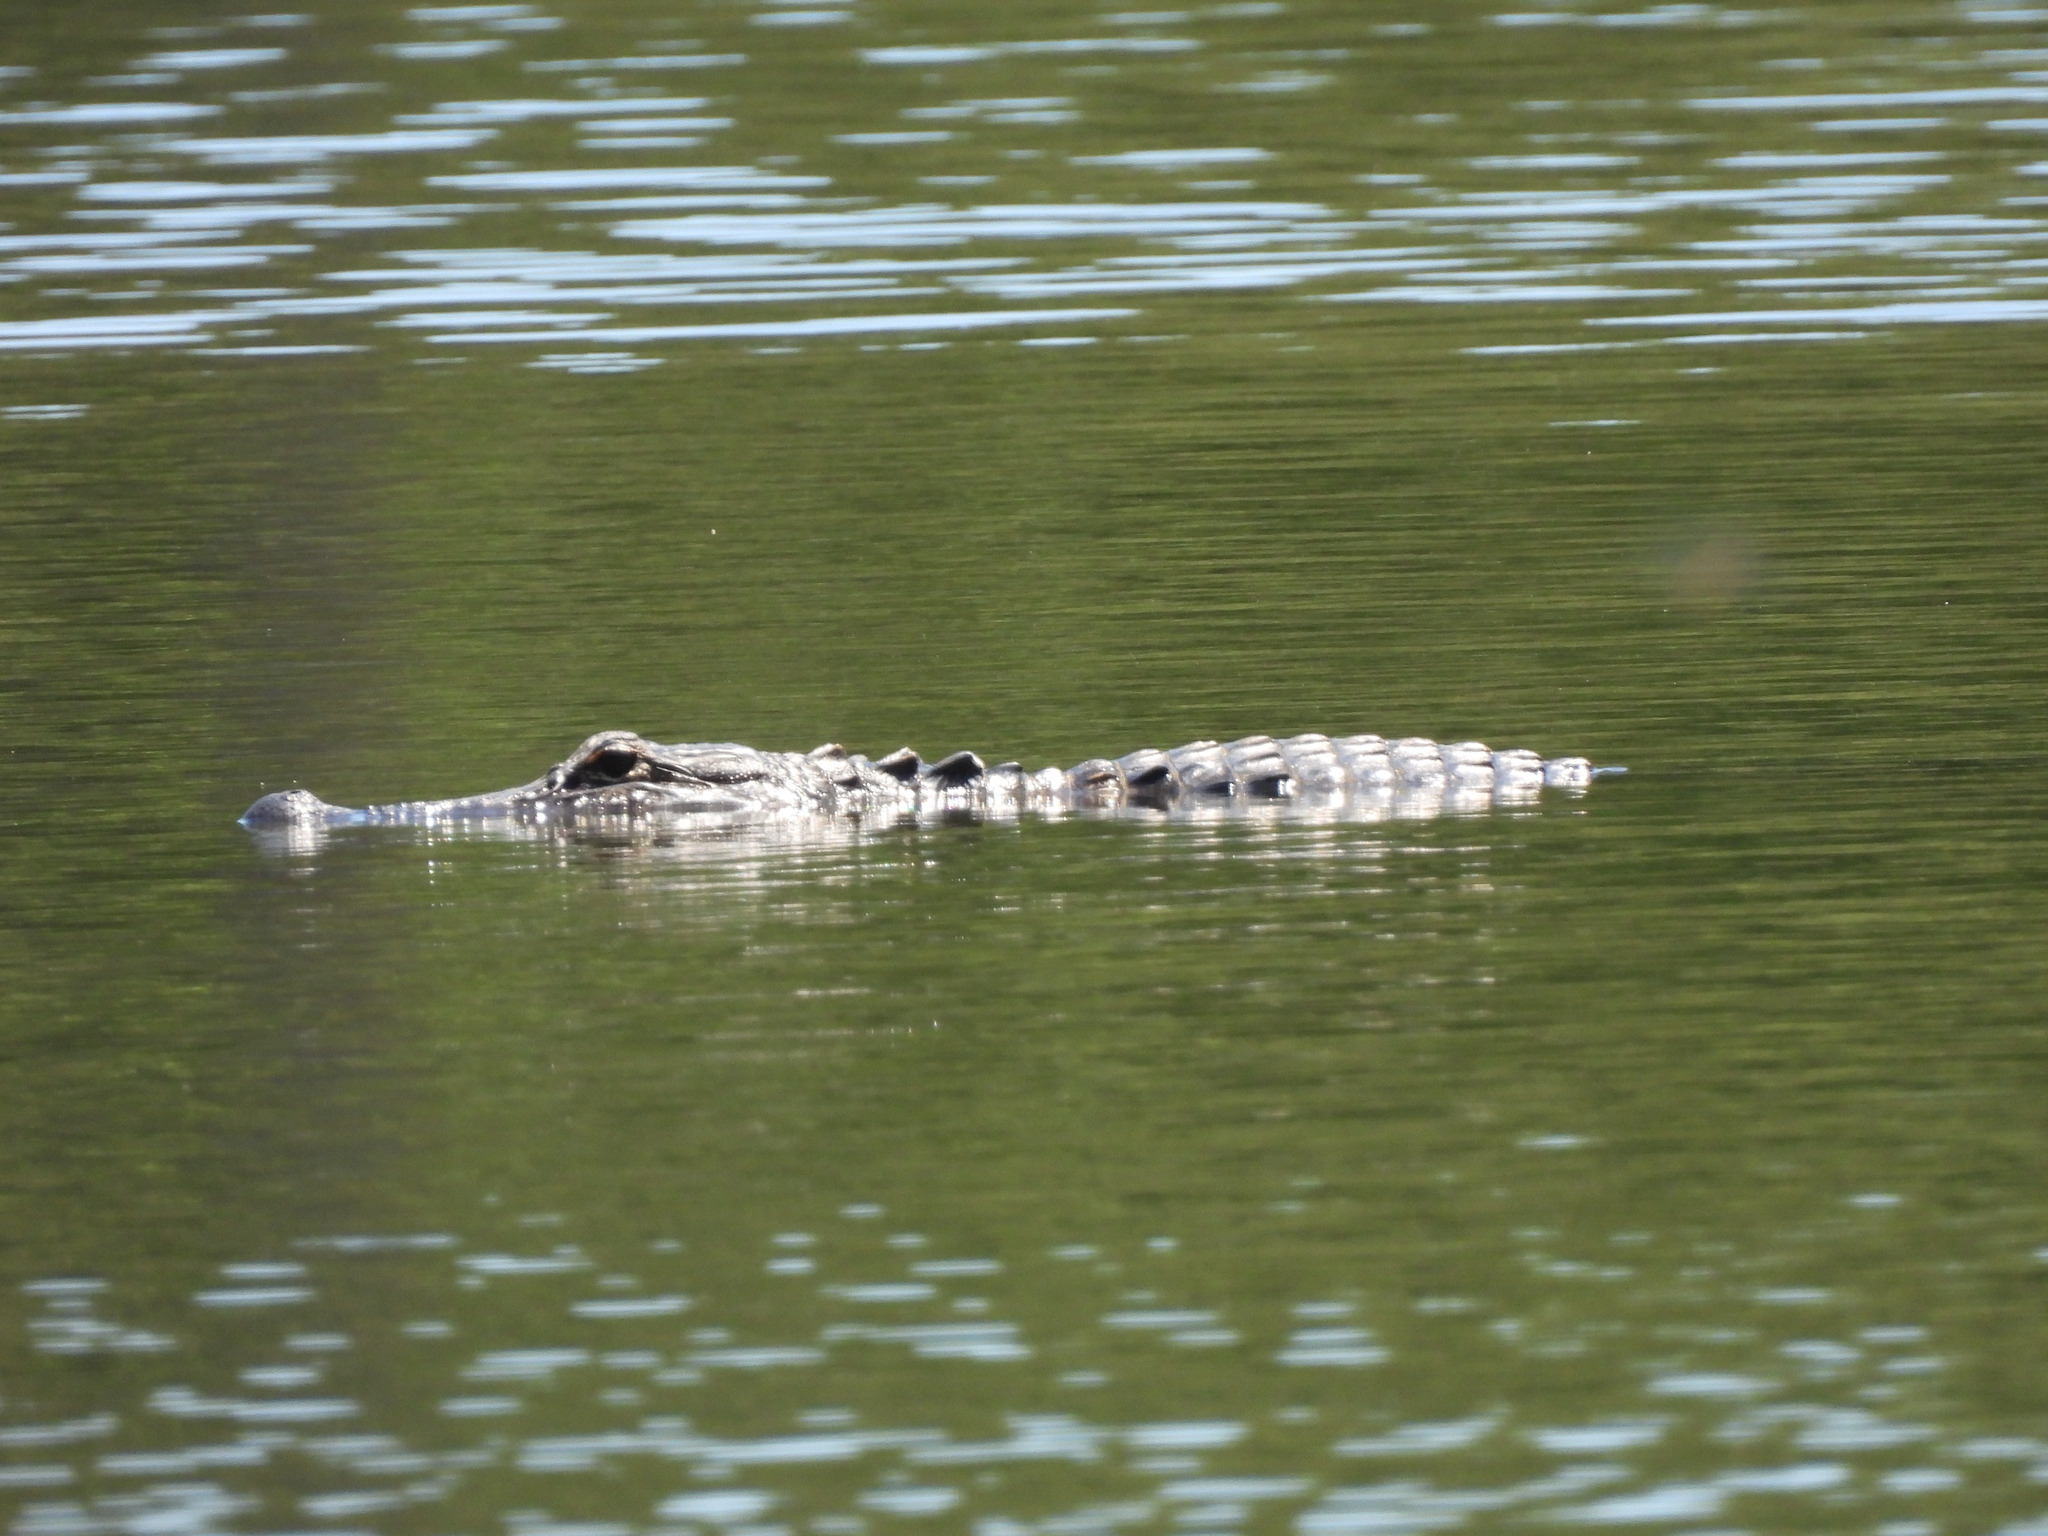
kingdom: Animalia
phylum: Chordata
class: Crocodylia
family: Alligatoridae
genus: Alligator
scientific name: Alligator mississippiensis
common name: American alligator
